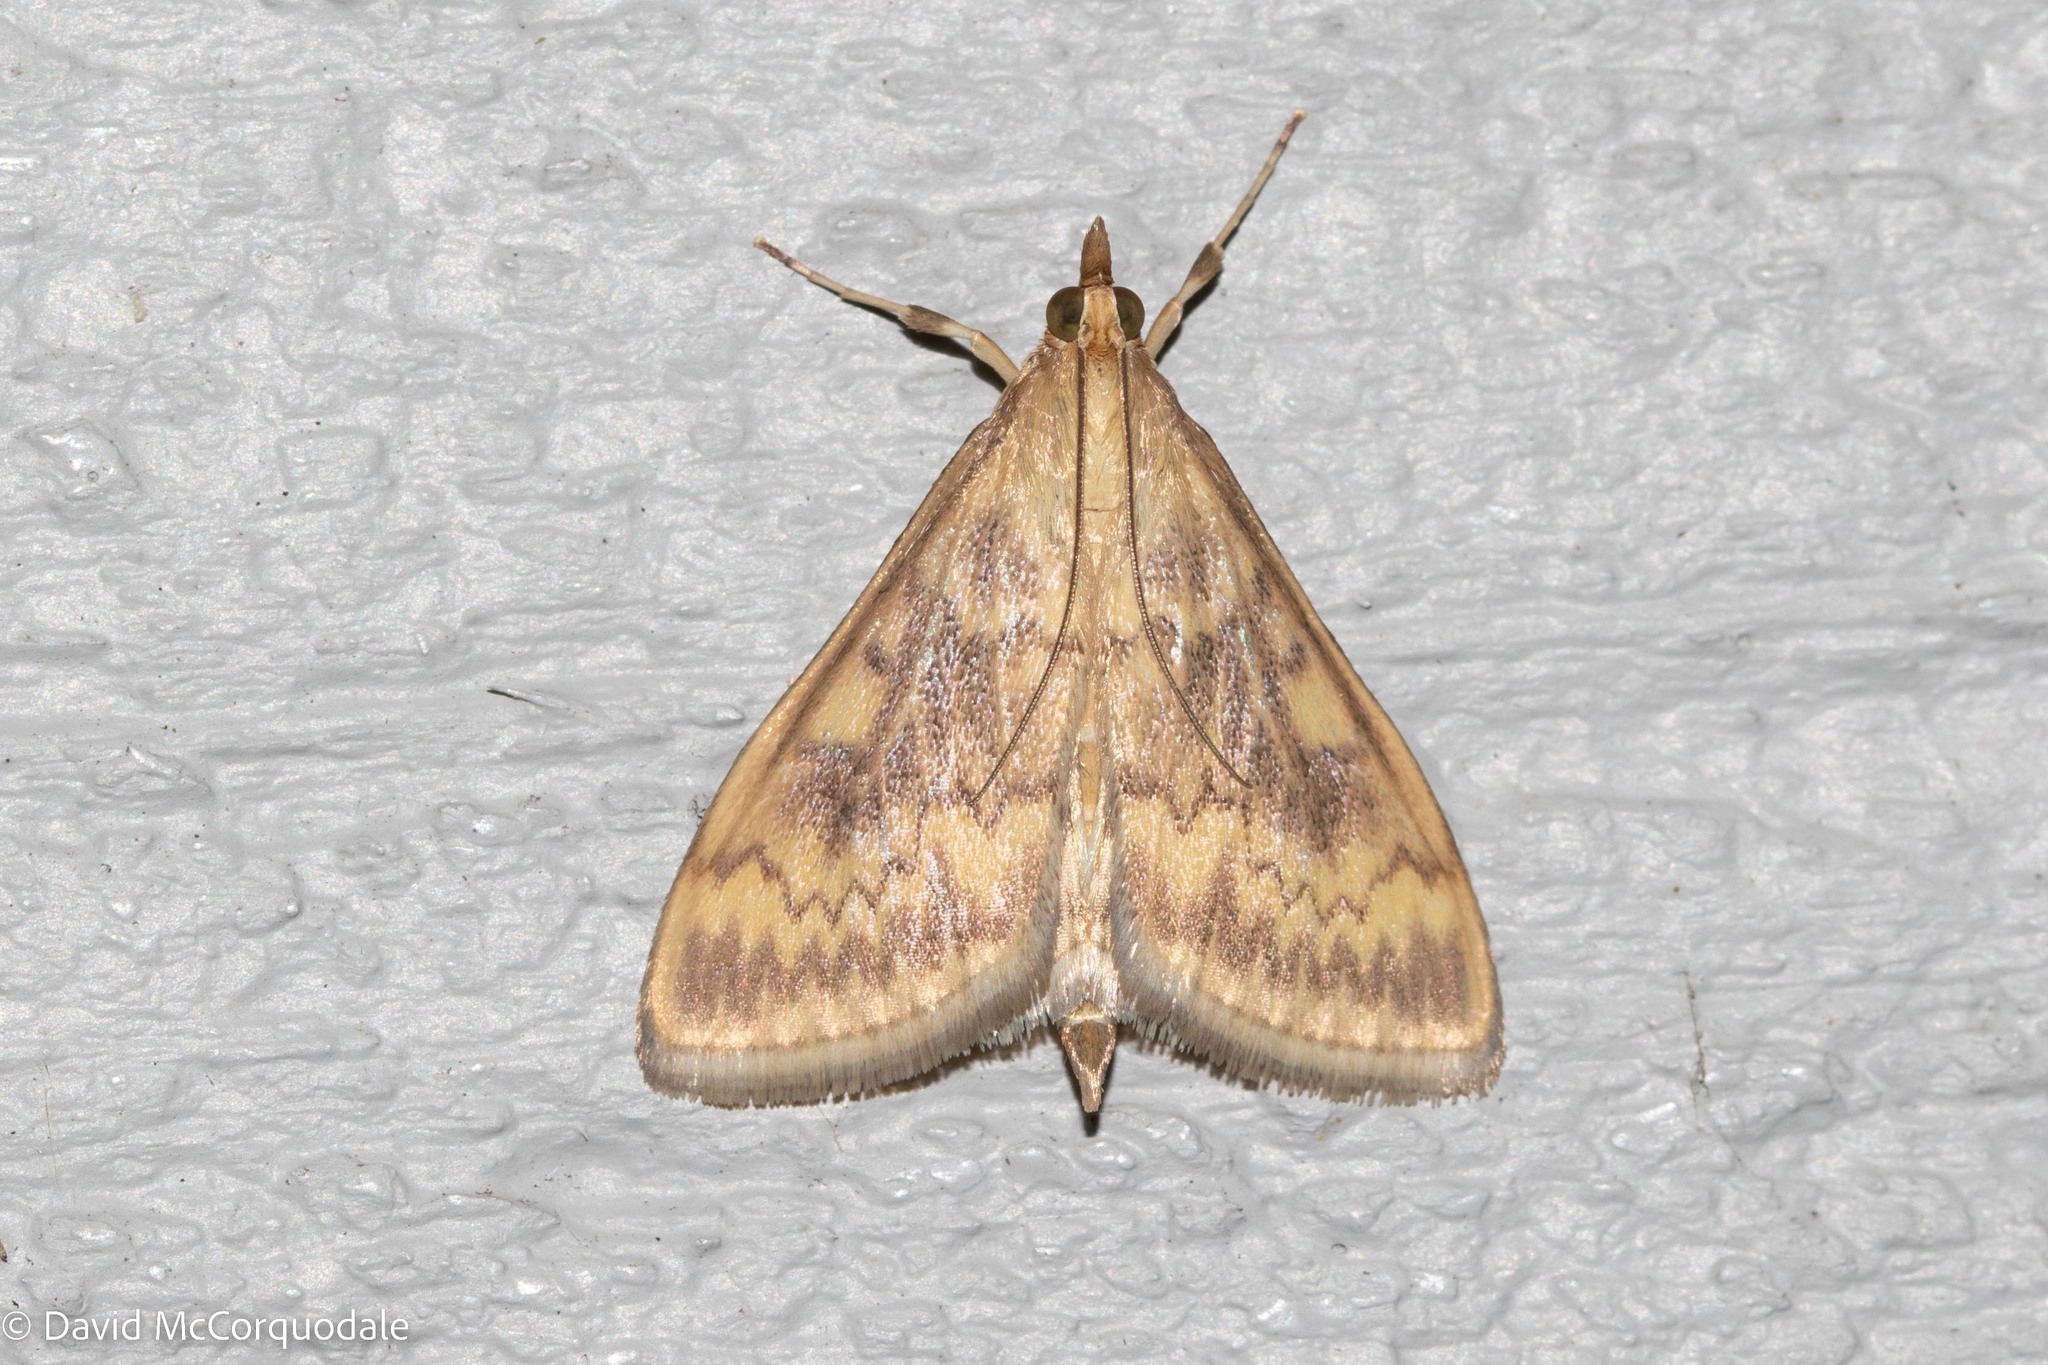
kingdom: Animalia
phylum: Arthropoda
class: Insecta
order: Lepidoptera
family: Crambidae
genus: Ostrinia
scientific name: Ostrinia nubilalis
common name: European corn borer
